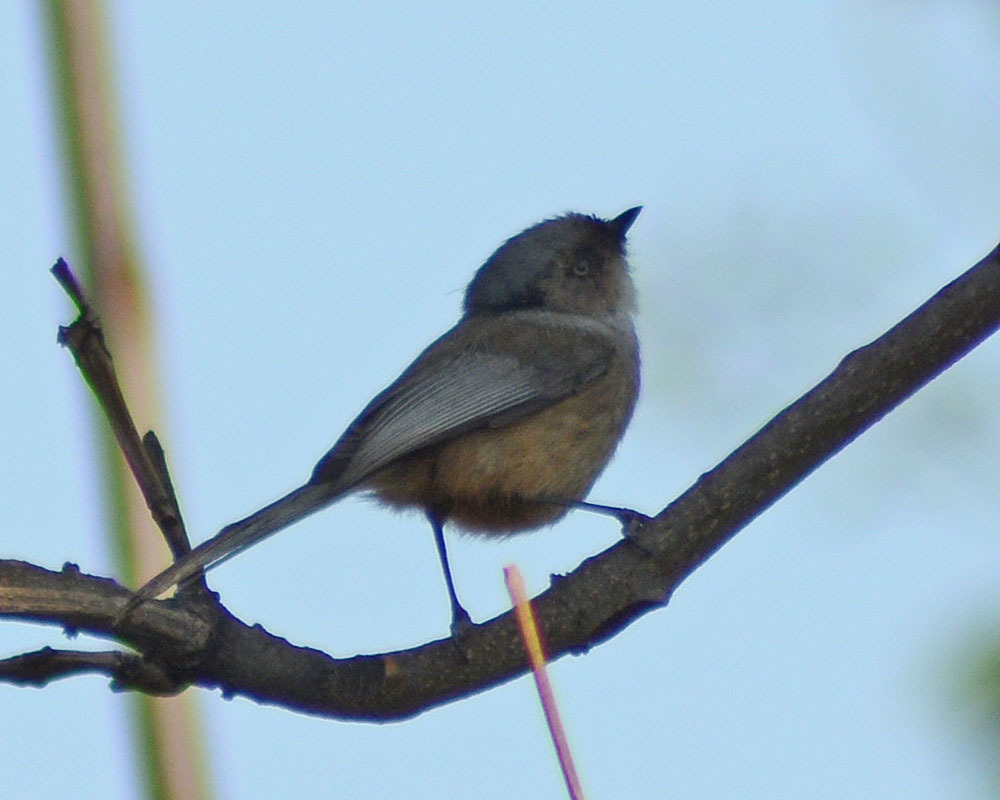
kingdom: Animalia
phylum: Chordata
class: Aves
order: Passeriformes
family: Aegithalidae
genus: Psaltriparus
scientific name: Psaltriparus minimus
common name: American bushtit
